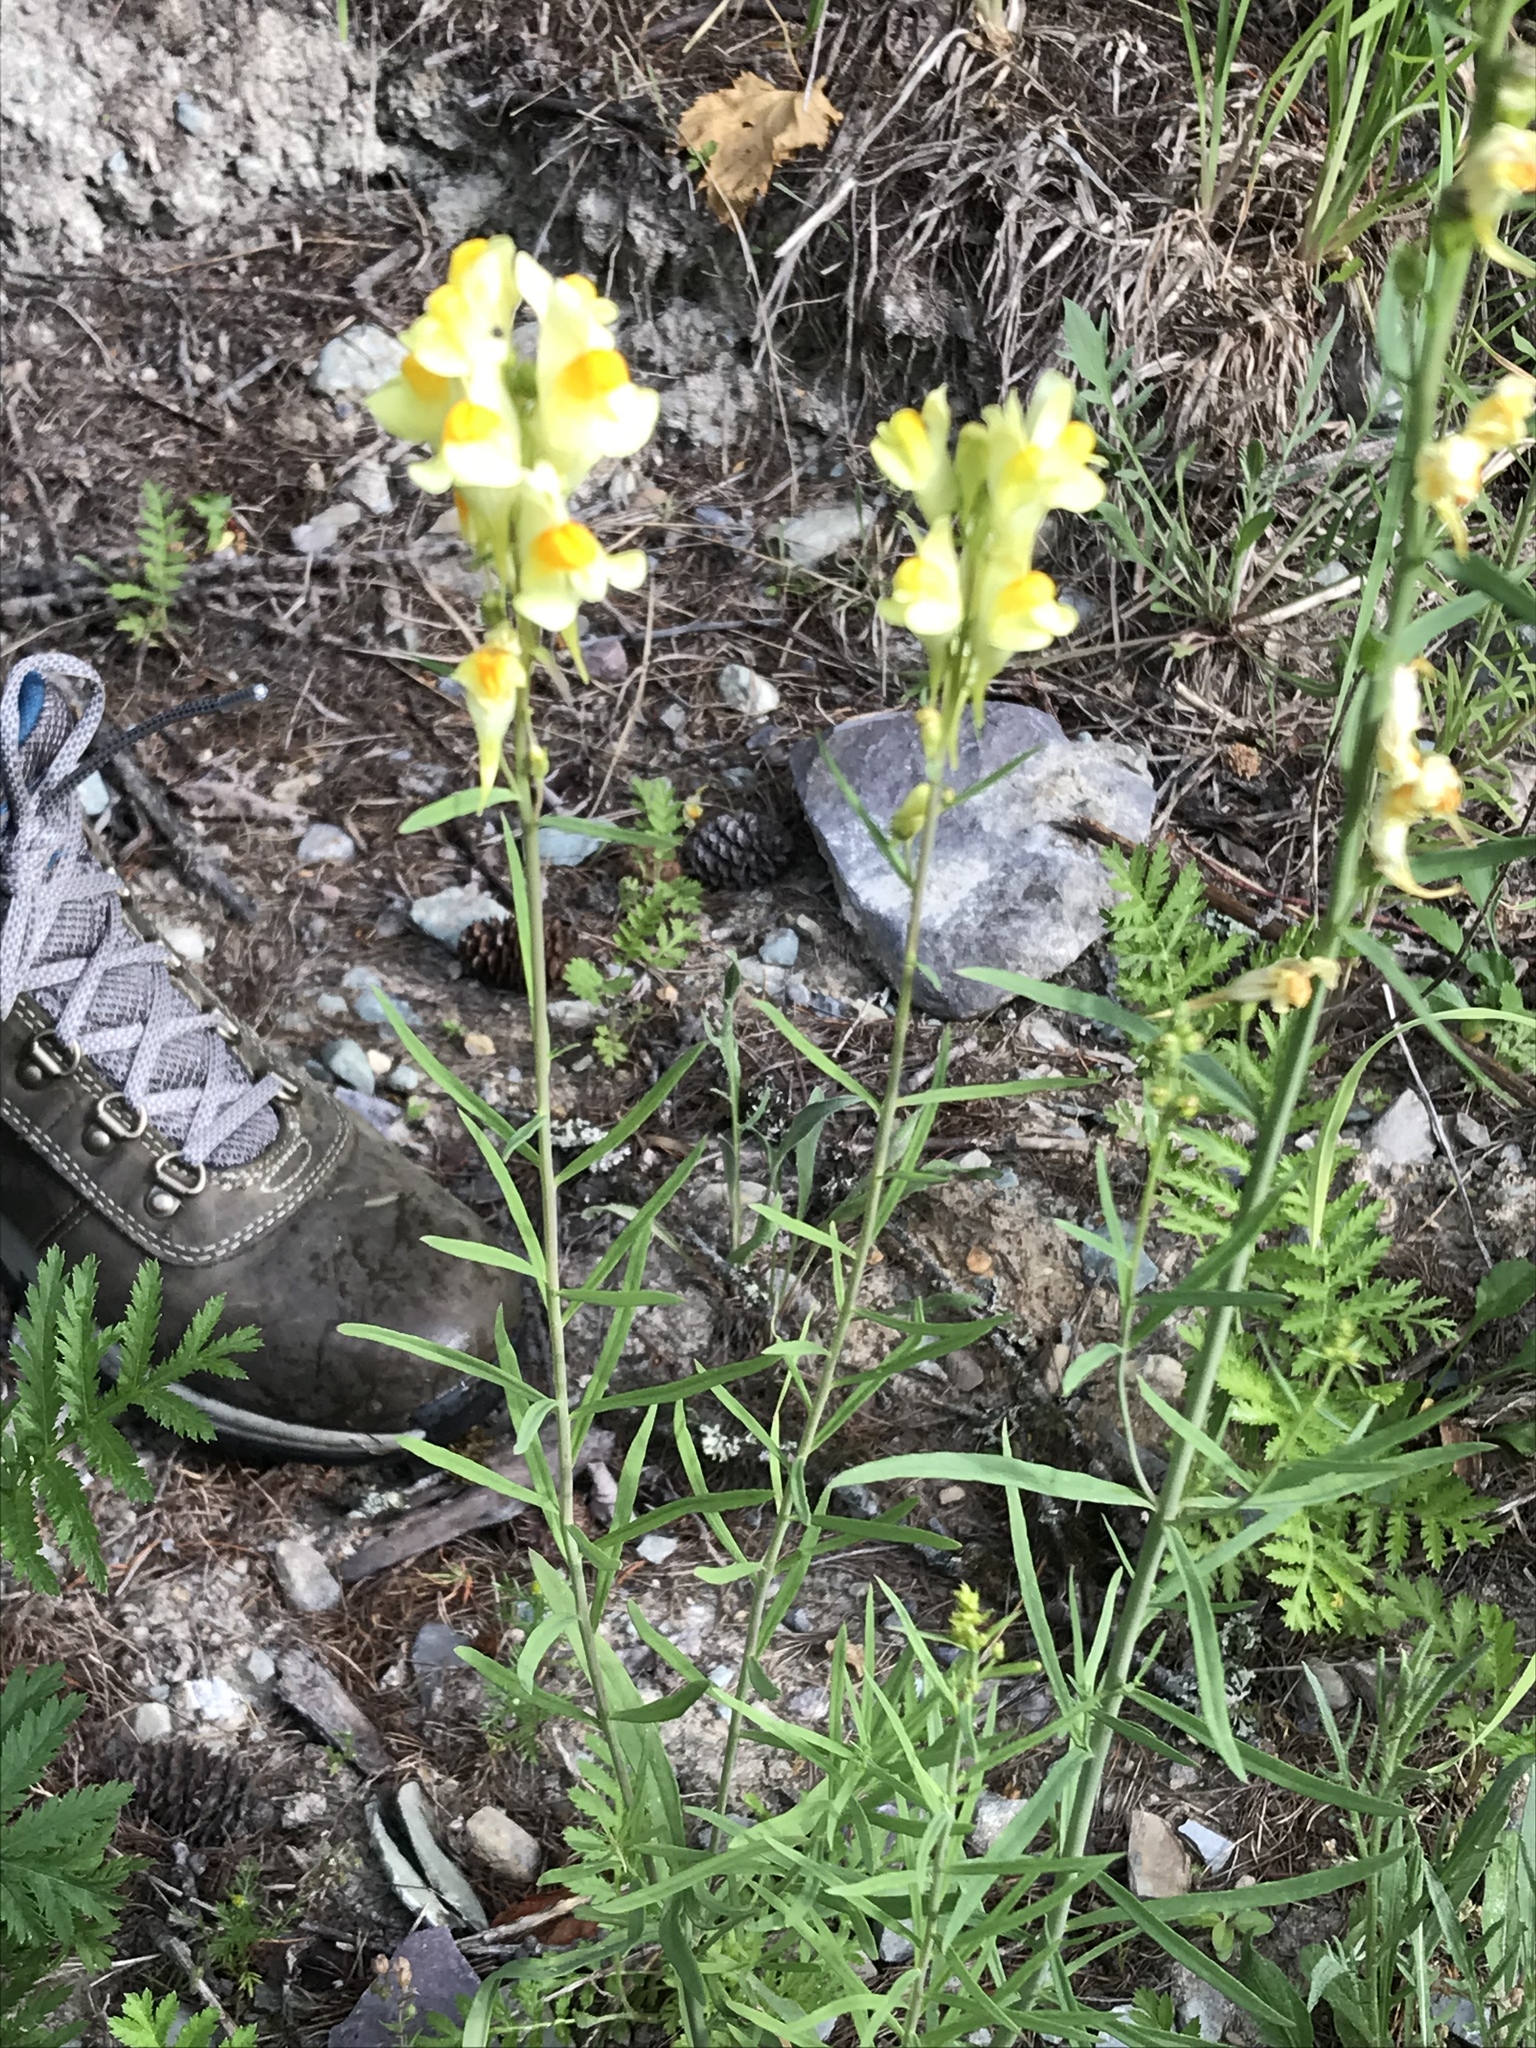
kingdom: Plantae
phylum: Tracheophyta
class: Magnoliopsida
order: Lamiales
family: Plantaginaceae
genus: Linaria
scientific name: Linaria vulgaris
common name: Butter and eggs
